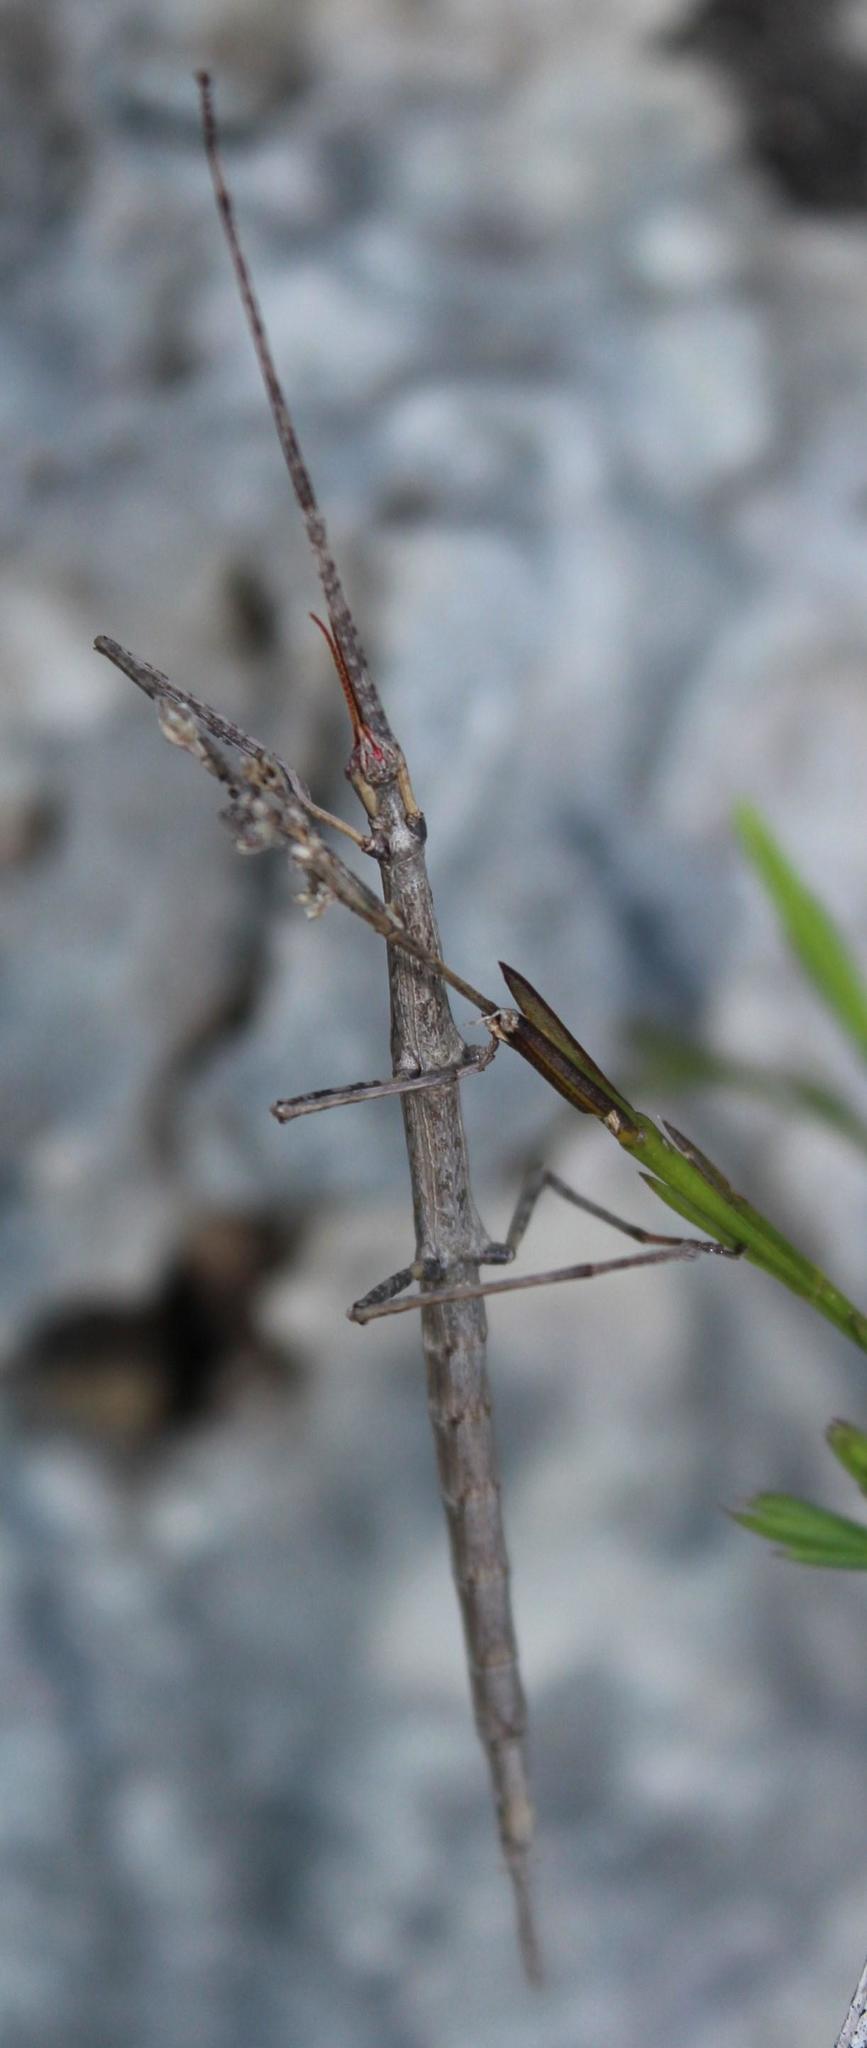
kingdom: Animalia
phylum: Arthropoda
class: Insecta
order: Phasmida
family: Bacillidae
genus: Phalces
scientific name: Phalces brevis
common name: Cape stick insect
